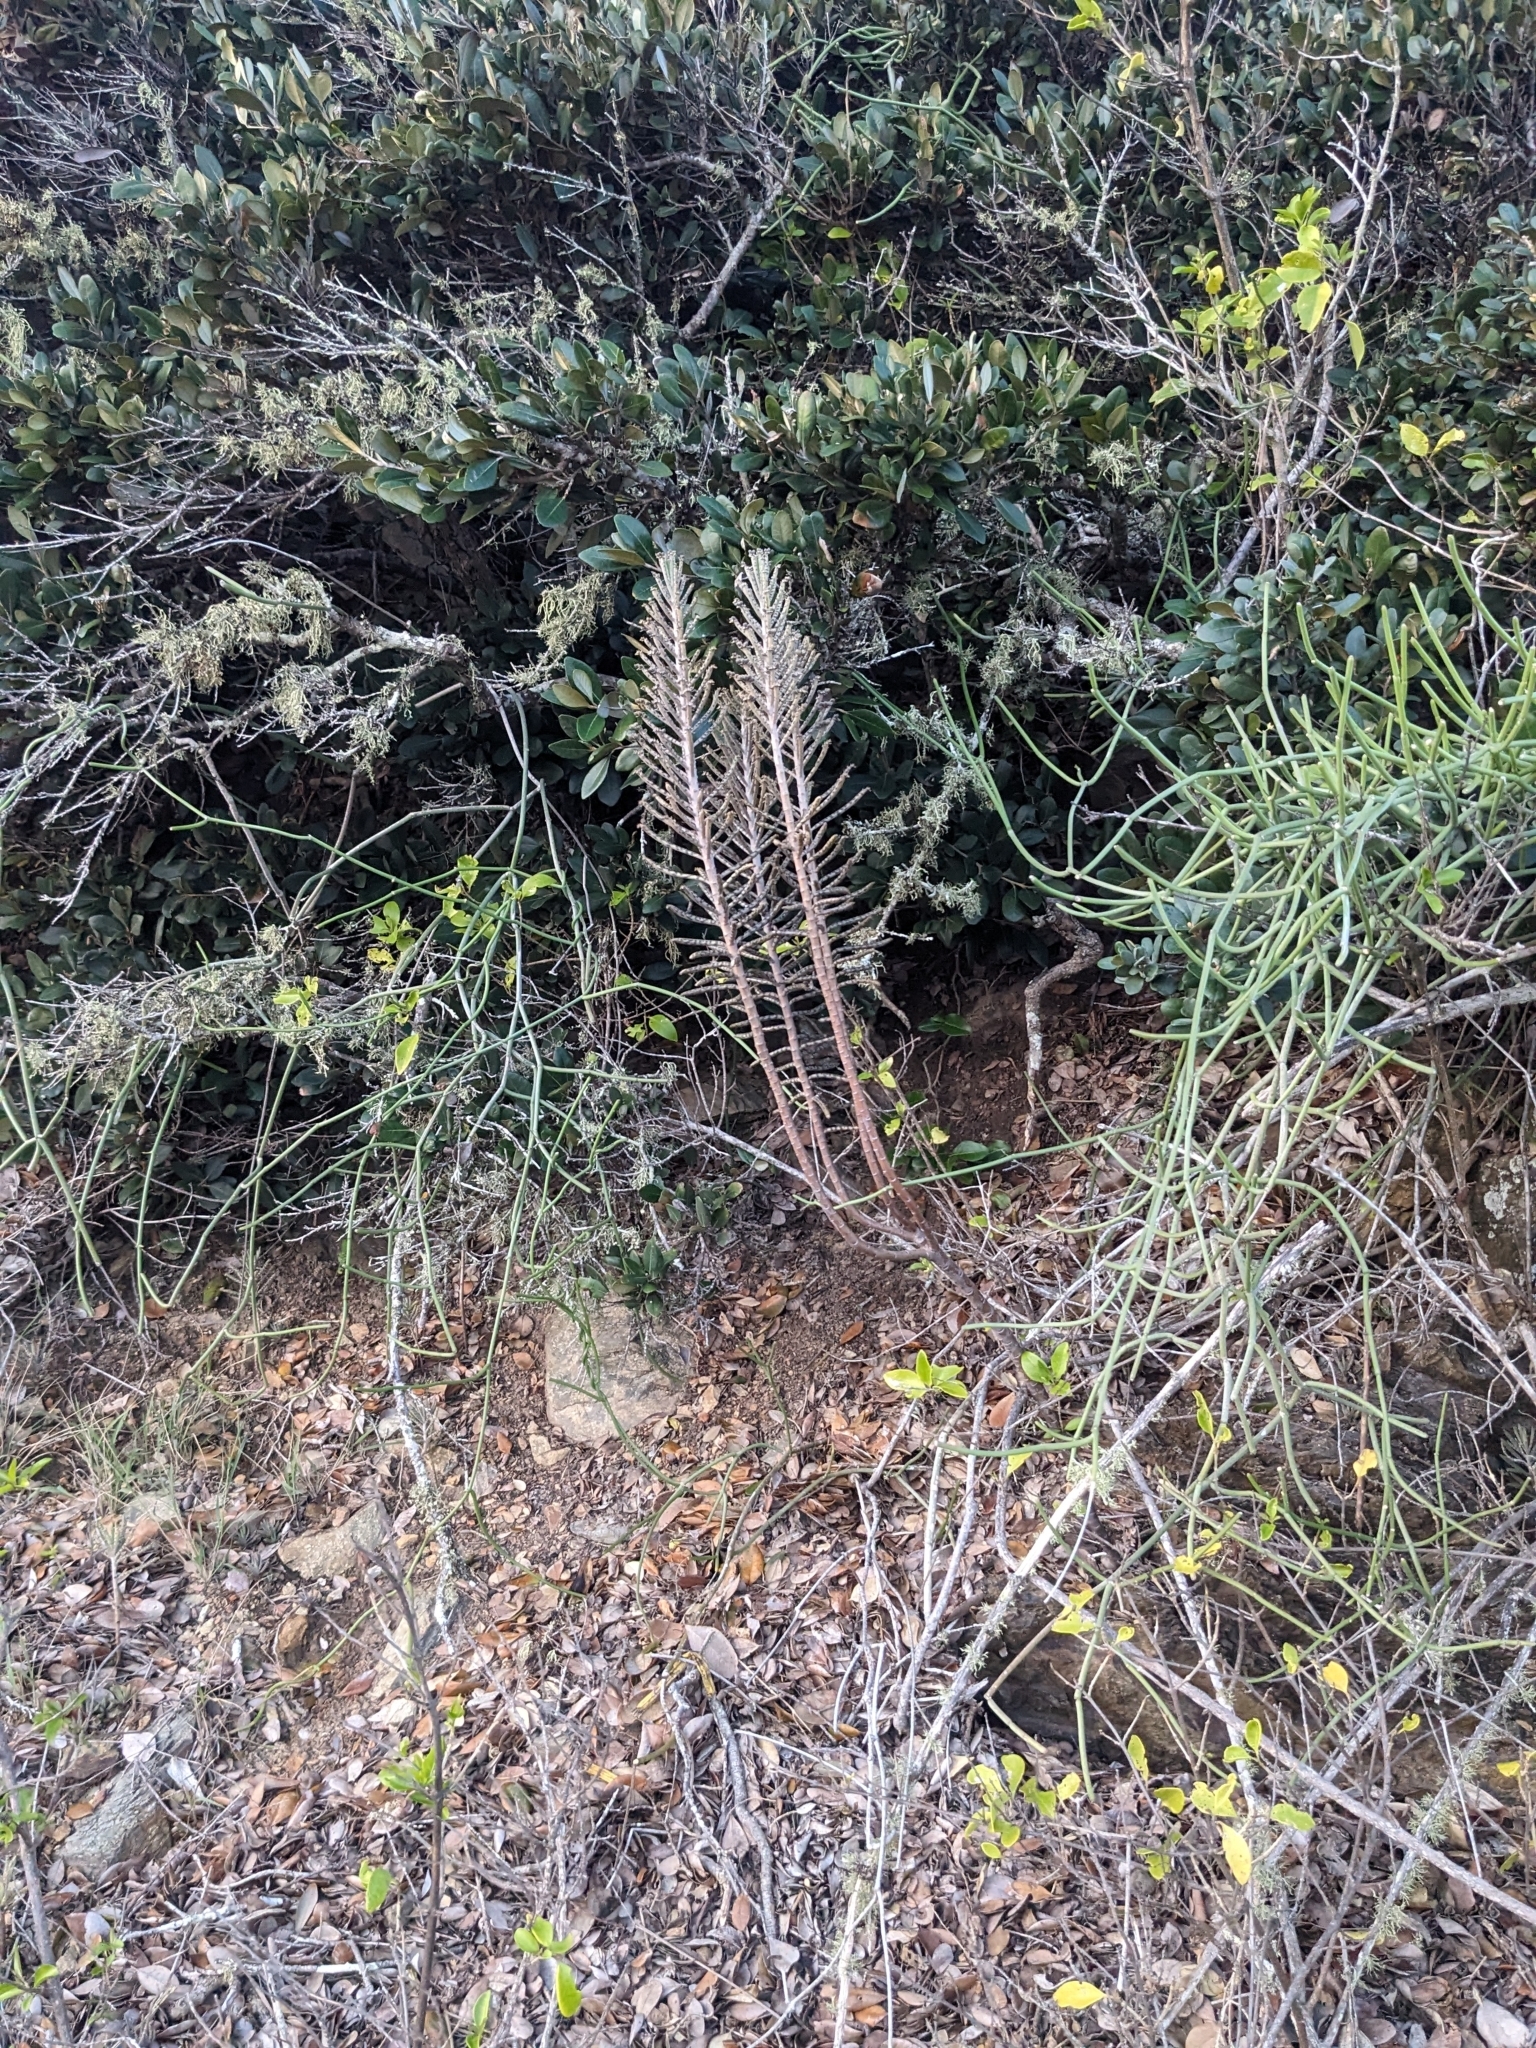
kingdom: Plantae
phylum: Tracheophyta
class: Magnoliopsida
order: Saxifragales
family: Crassulaceae
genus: Kalanchoe
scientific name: Kalanchoe delagoensis
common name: Chandelier plant
